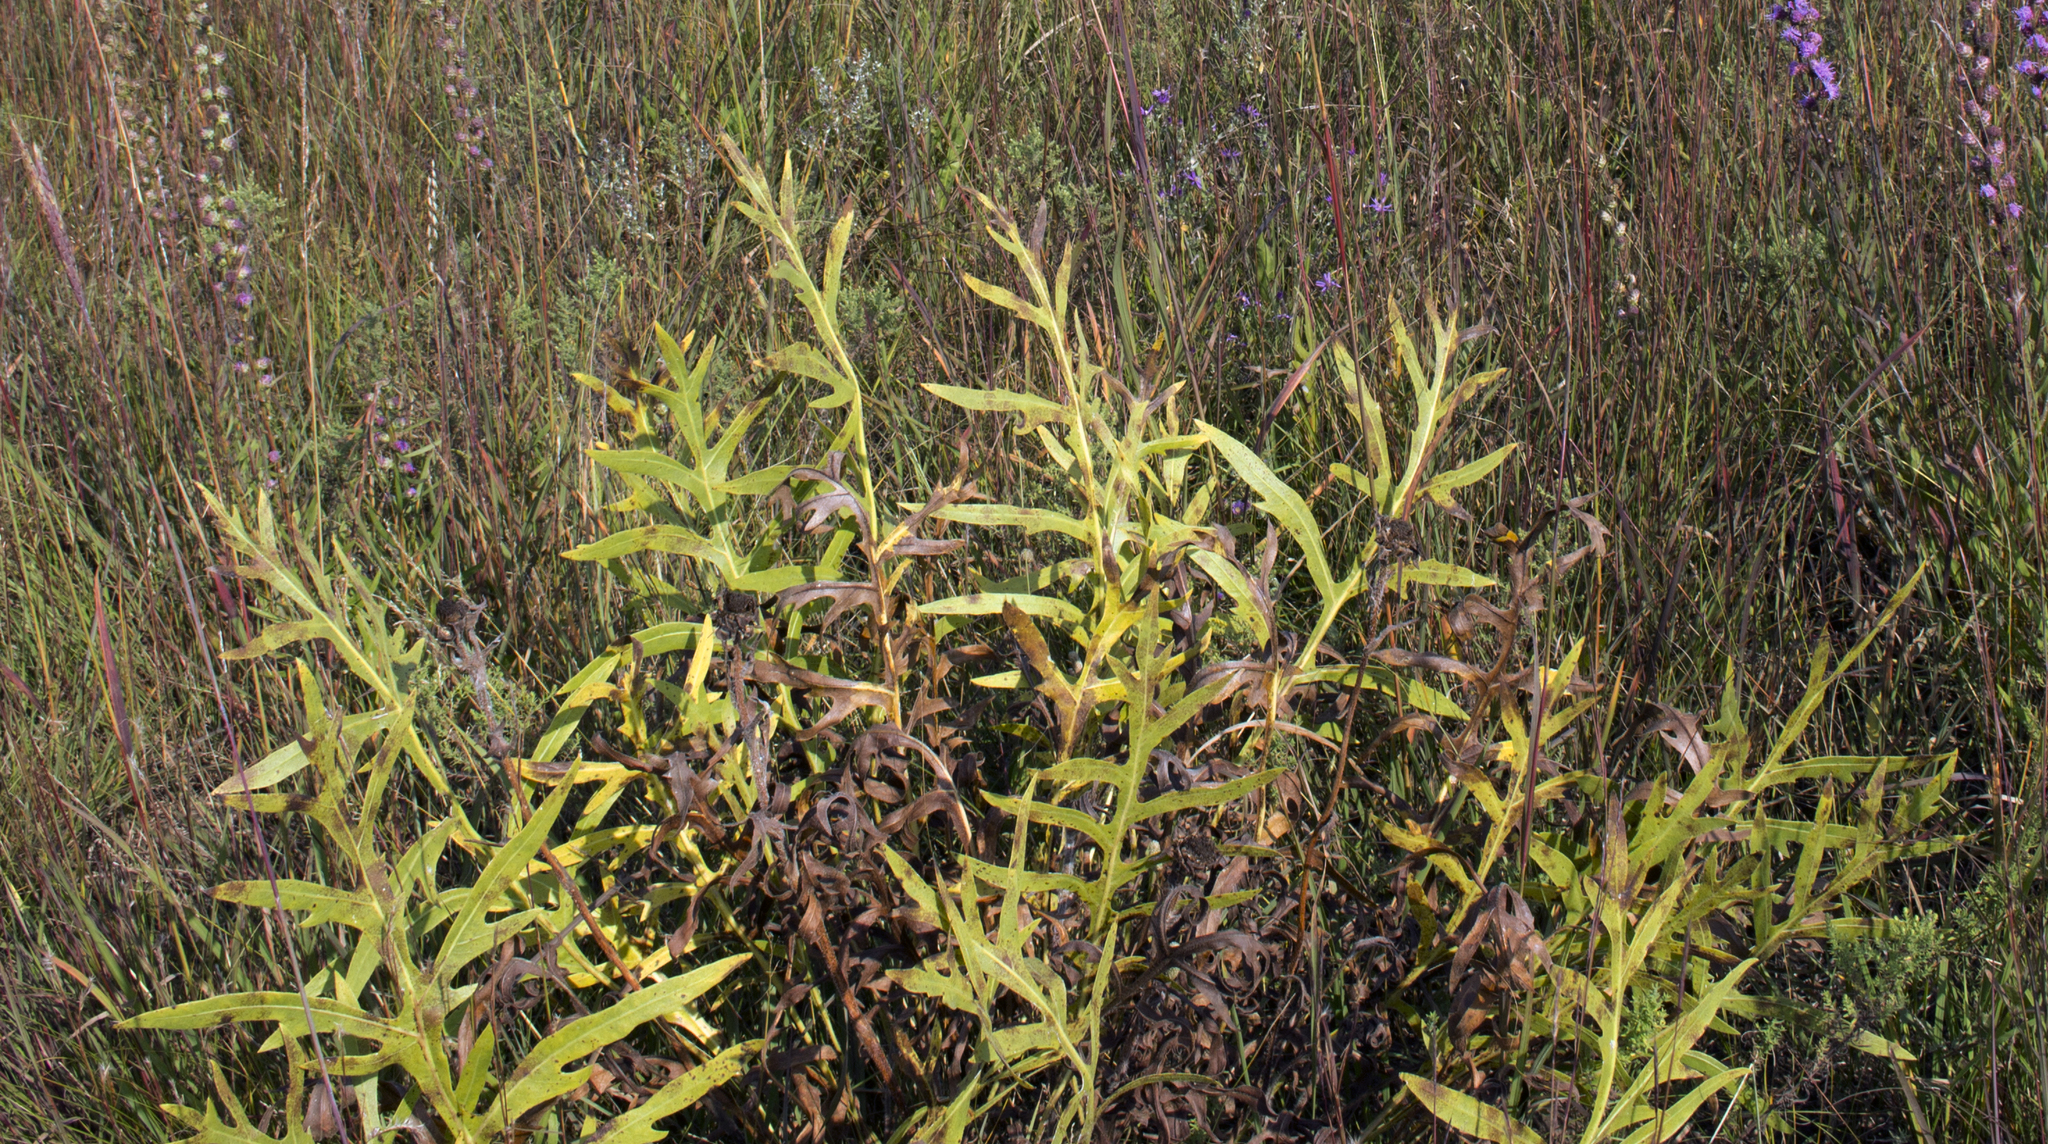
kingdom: Plantae
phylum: Tracheophyta
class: Magnoliopsida
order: Asterales
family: Asteraceae
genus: Silphium
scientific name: Silphium laciniatum
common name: Polarplant
